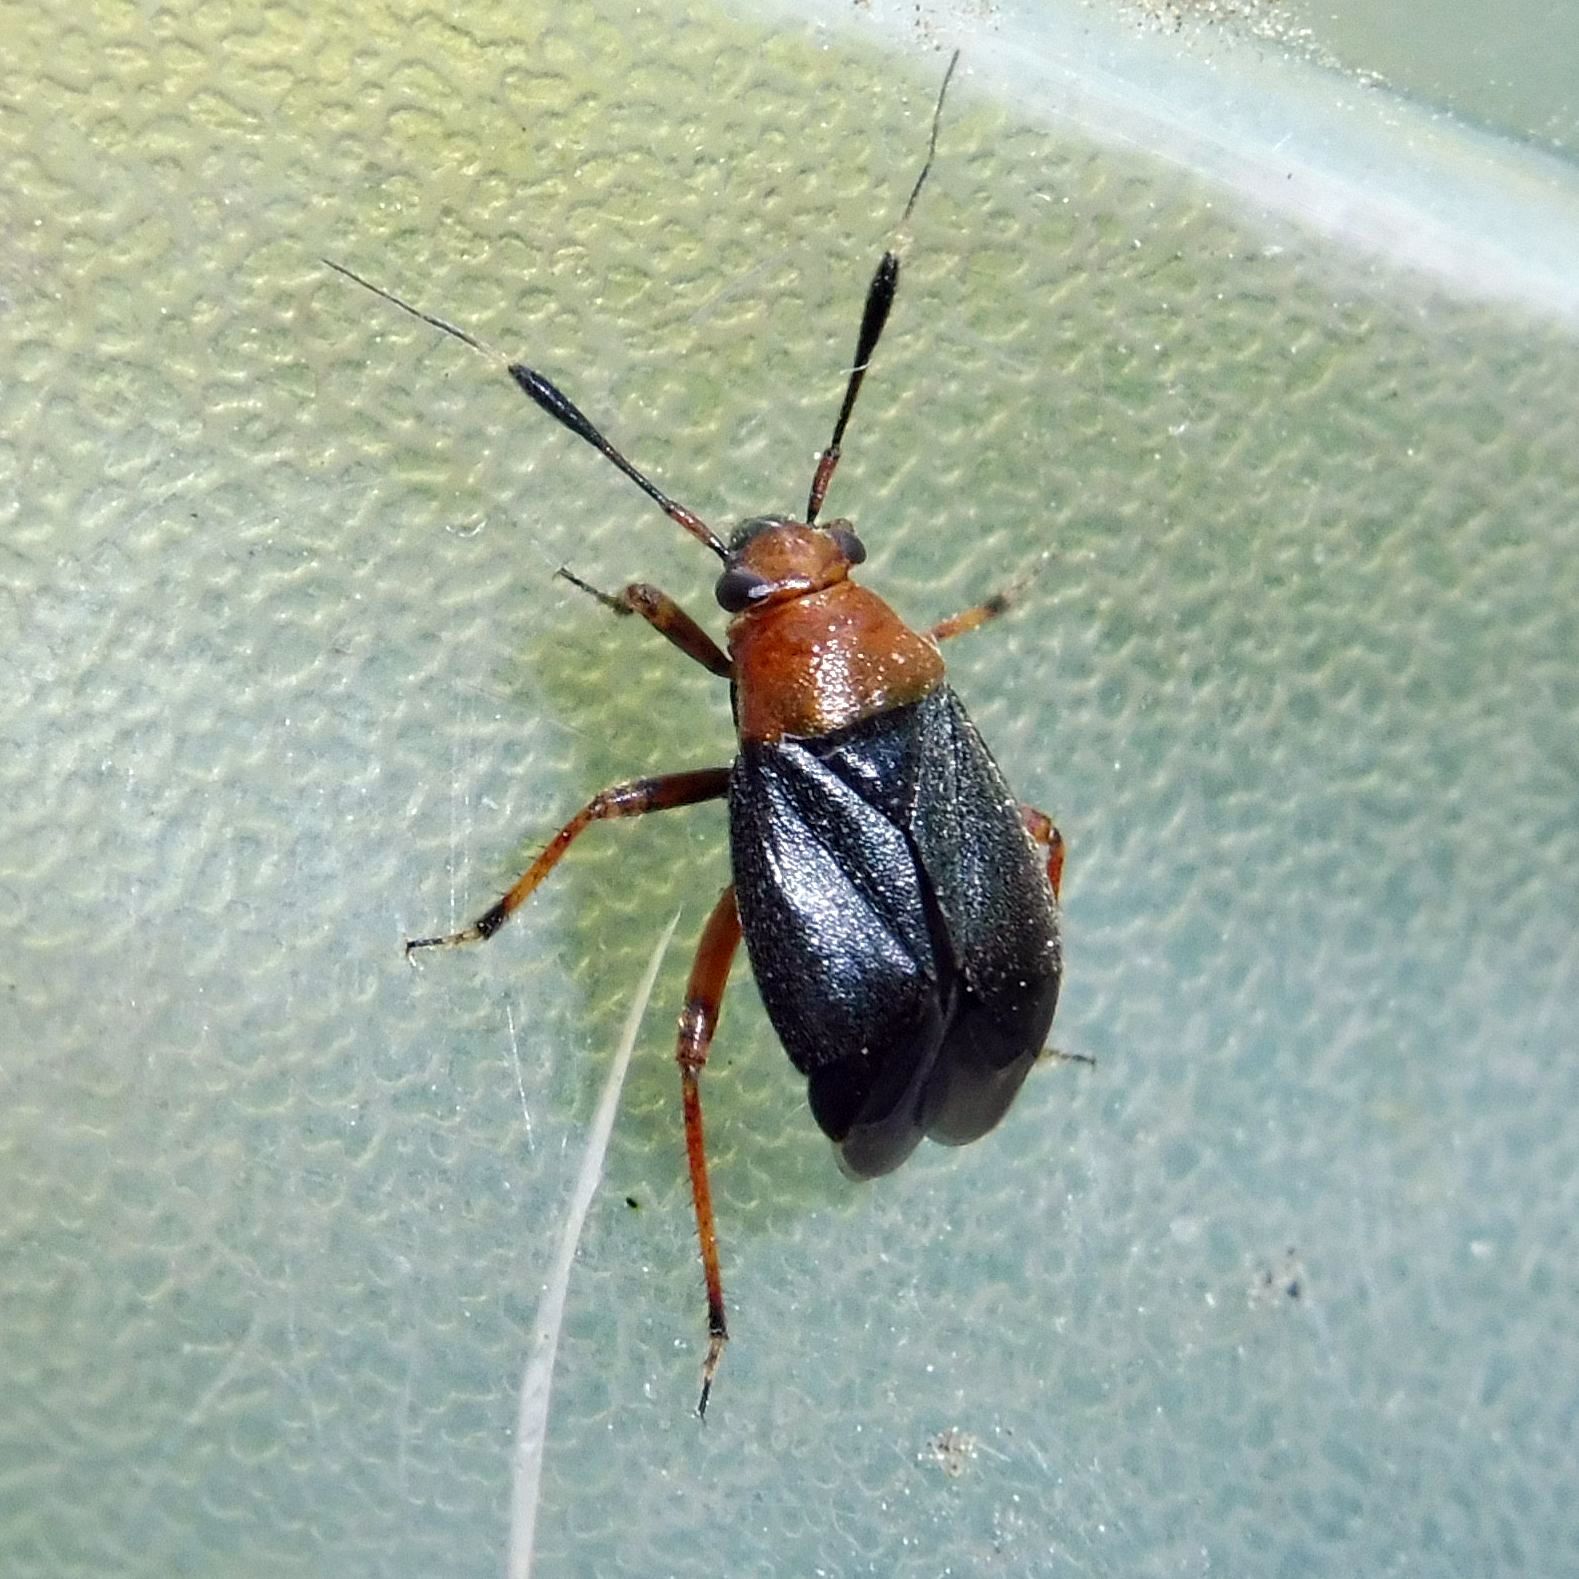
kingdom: Animalia
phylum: Arthropoda
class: Insecta
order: Hemiptera
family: Miridae
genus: Capsus
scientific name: Capsus ater
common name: Black plant bug
